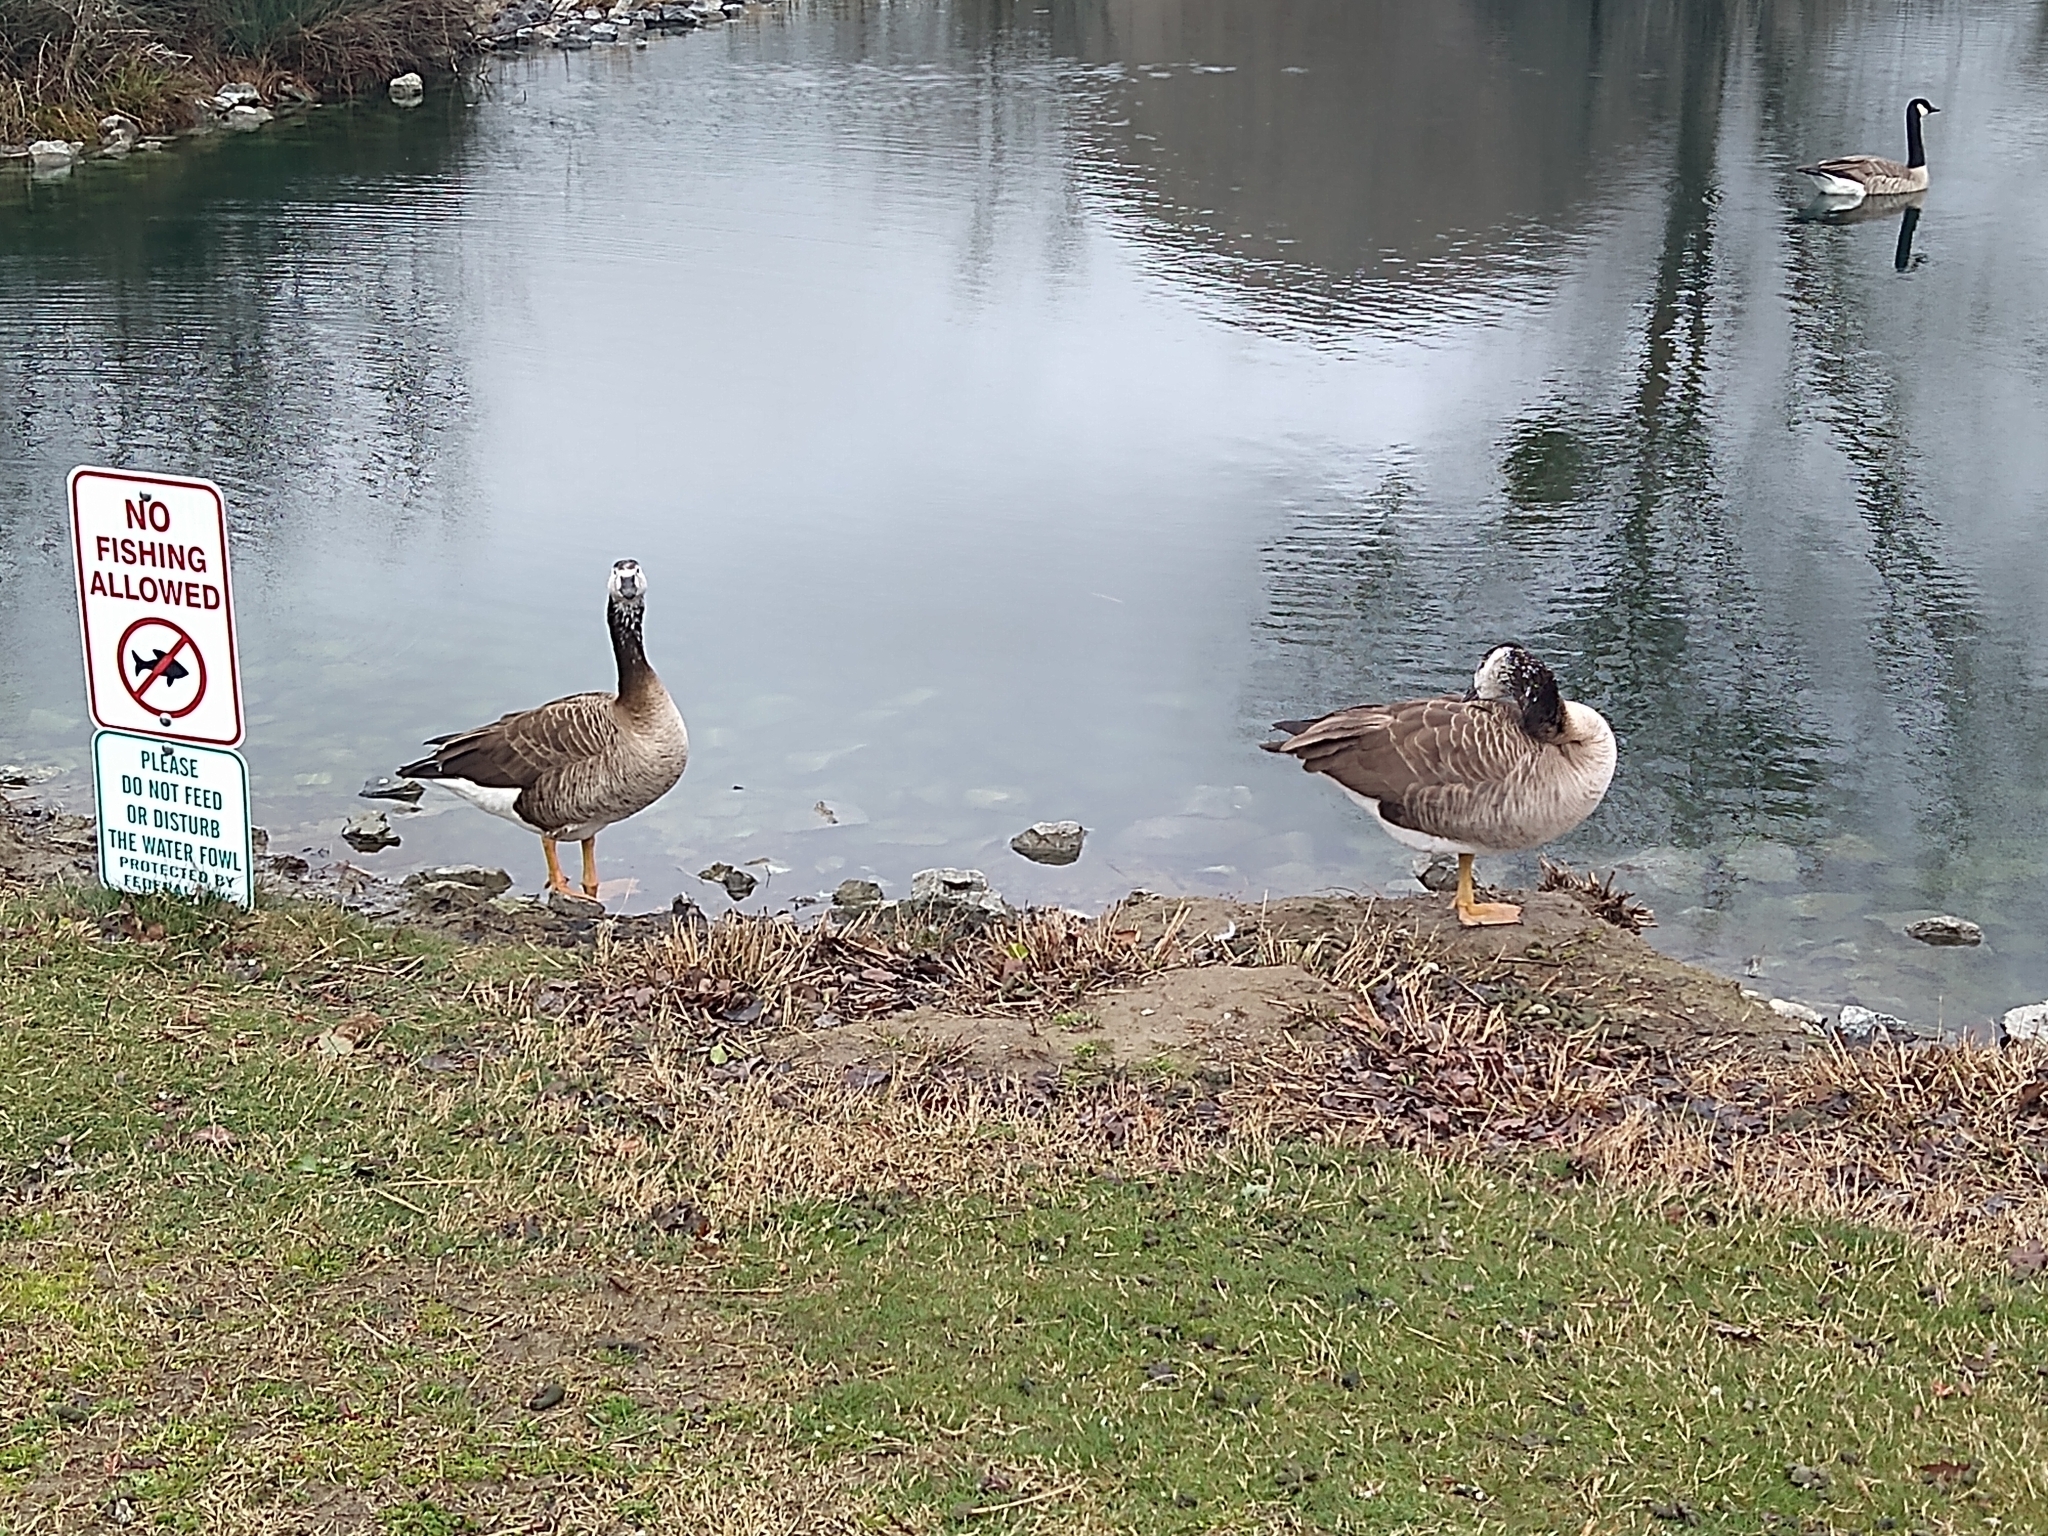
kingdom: Animalia
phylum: Chordata
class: Aves
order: Anseriformes
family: Anatidae
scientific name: Anatidae
